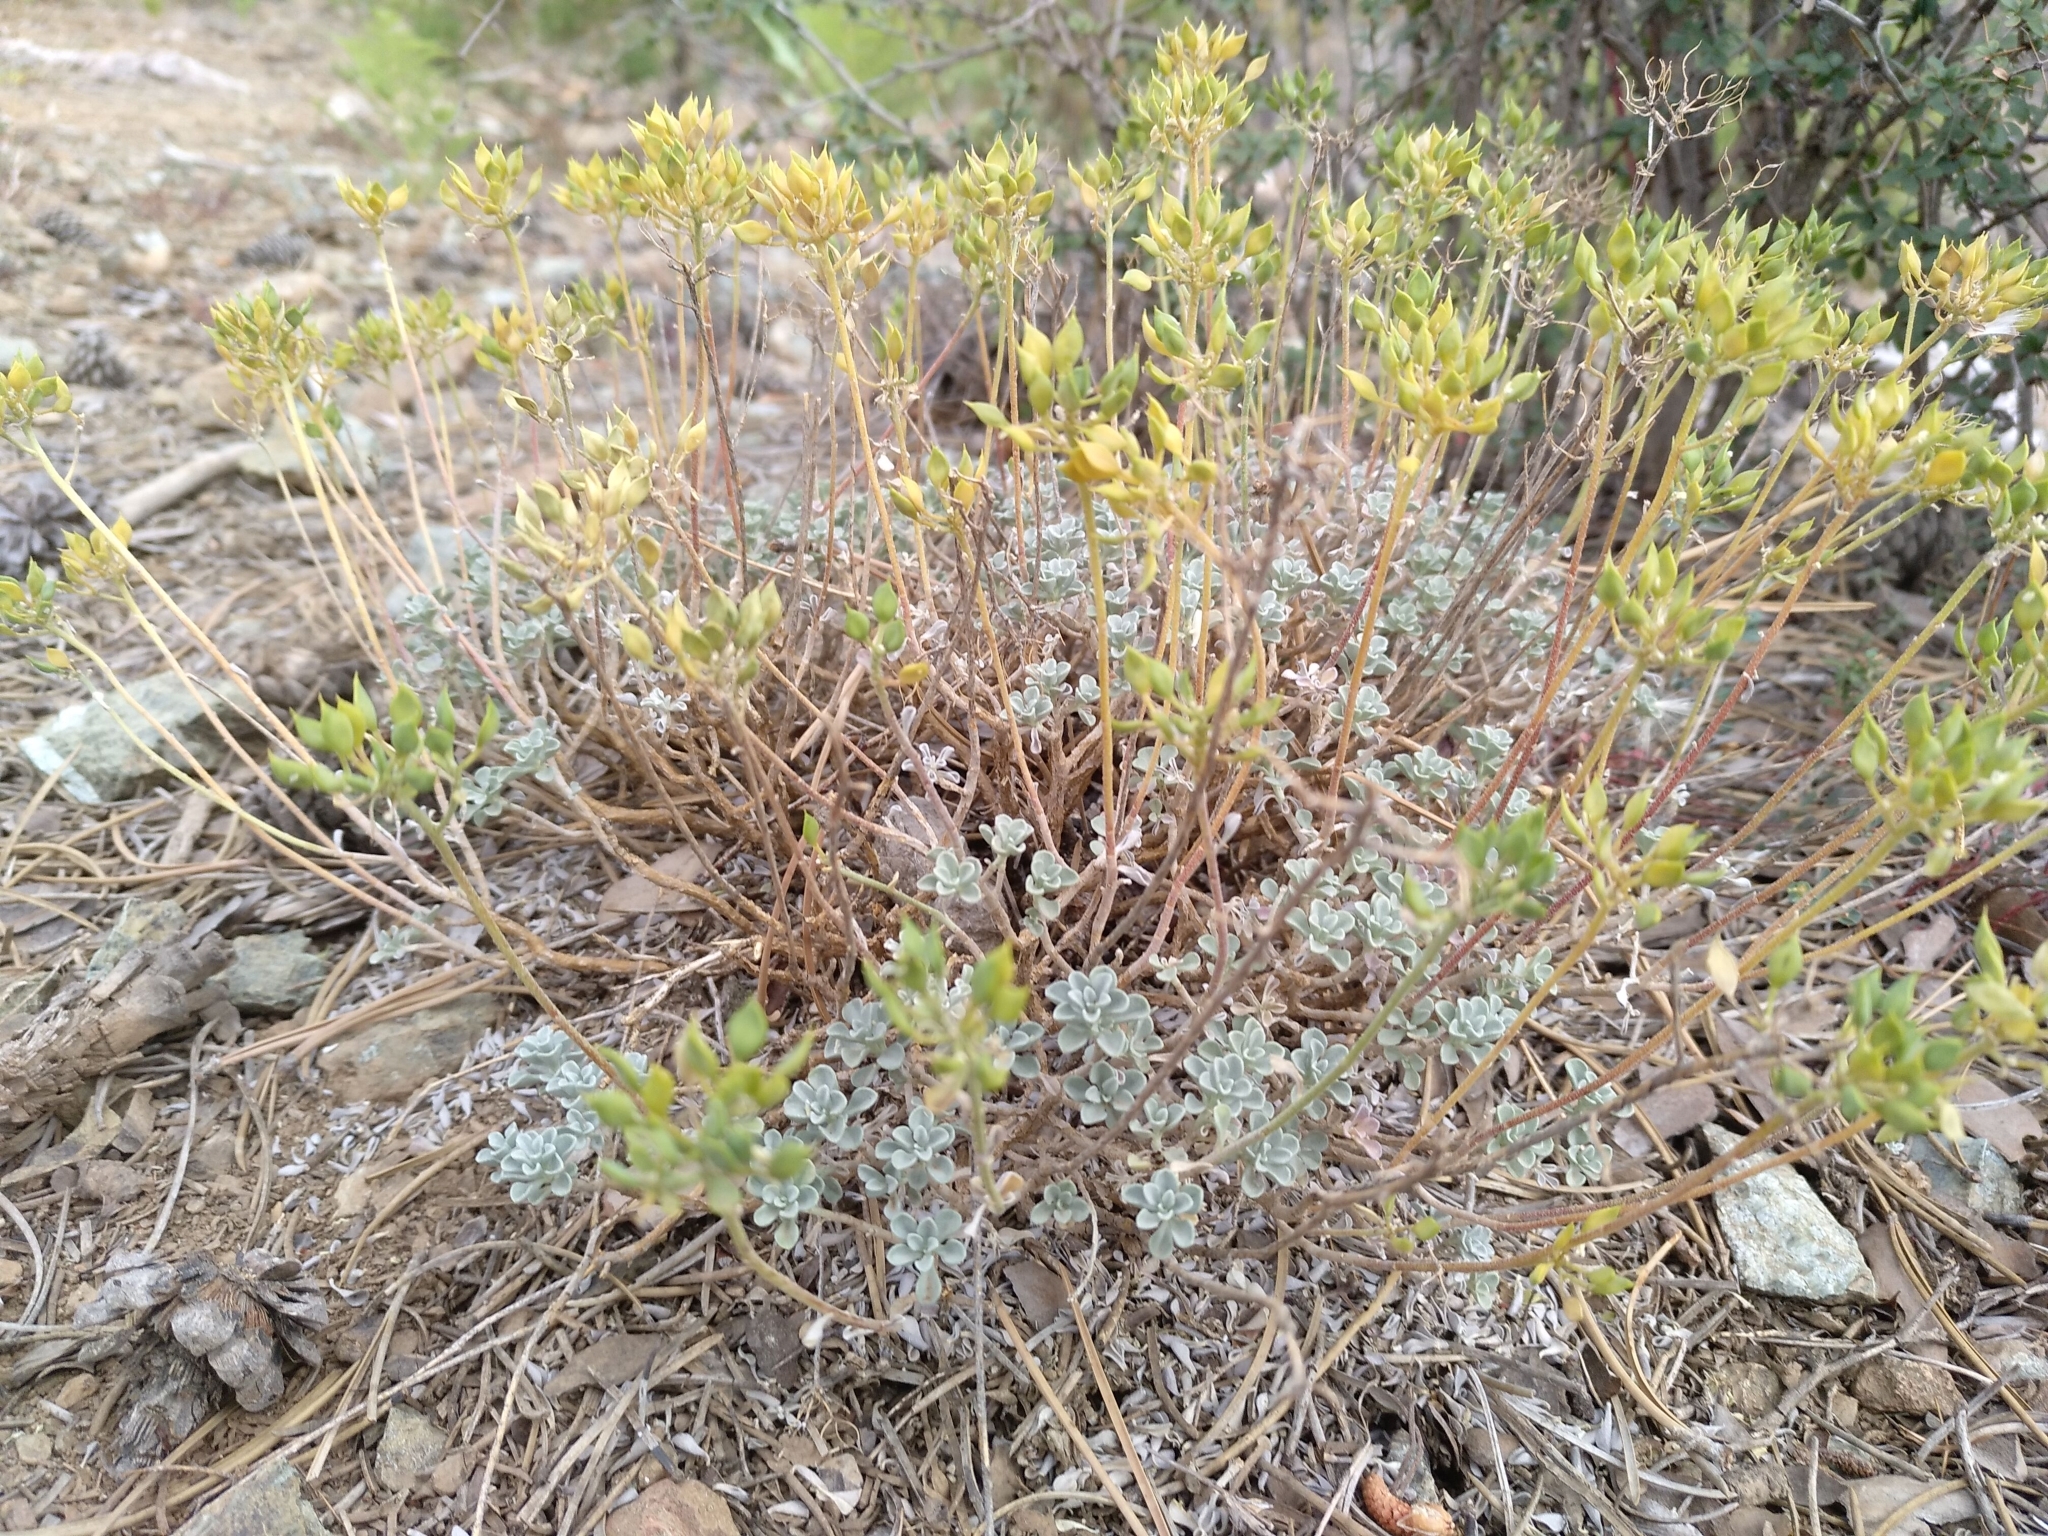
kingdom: Plantae
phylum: Tracheophyta
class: Magnoliopsida
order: Brassicales
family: Brassicaceae
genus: Odontarrhena
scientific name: Odontarrhena troodi
